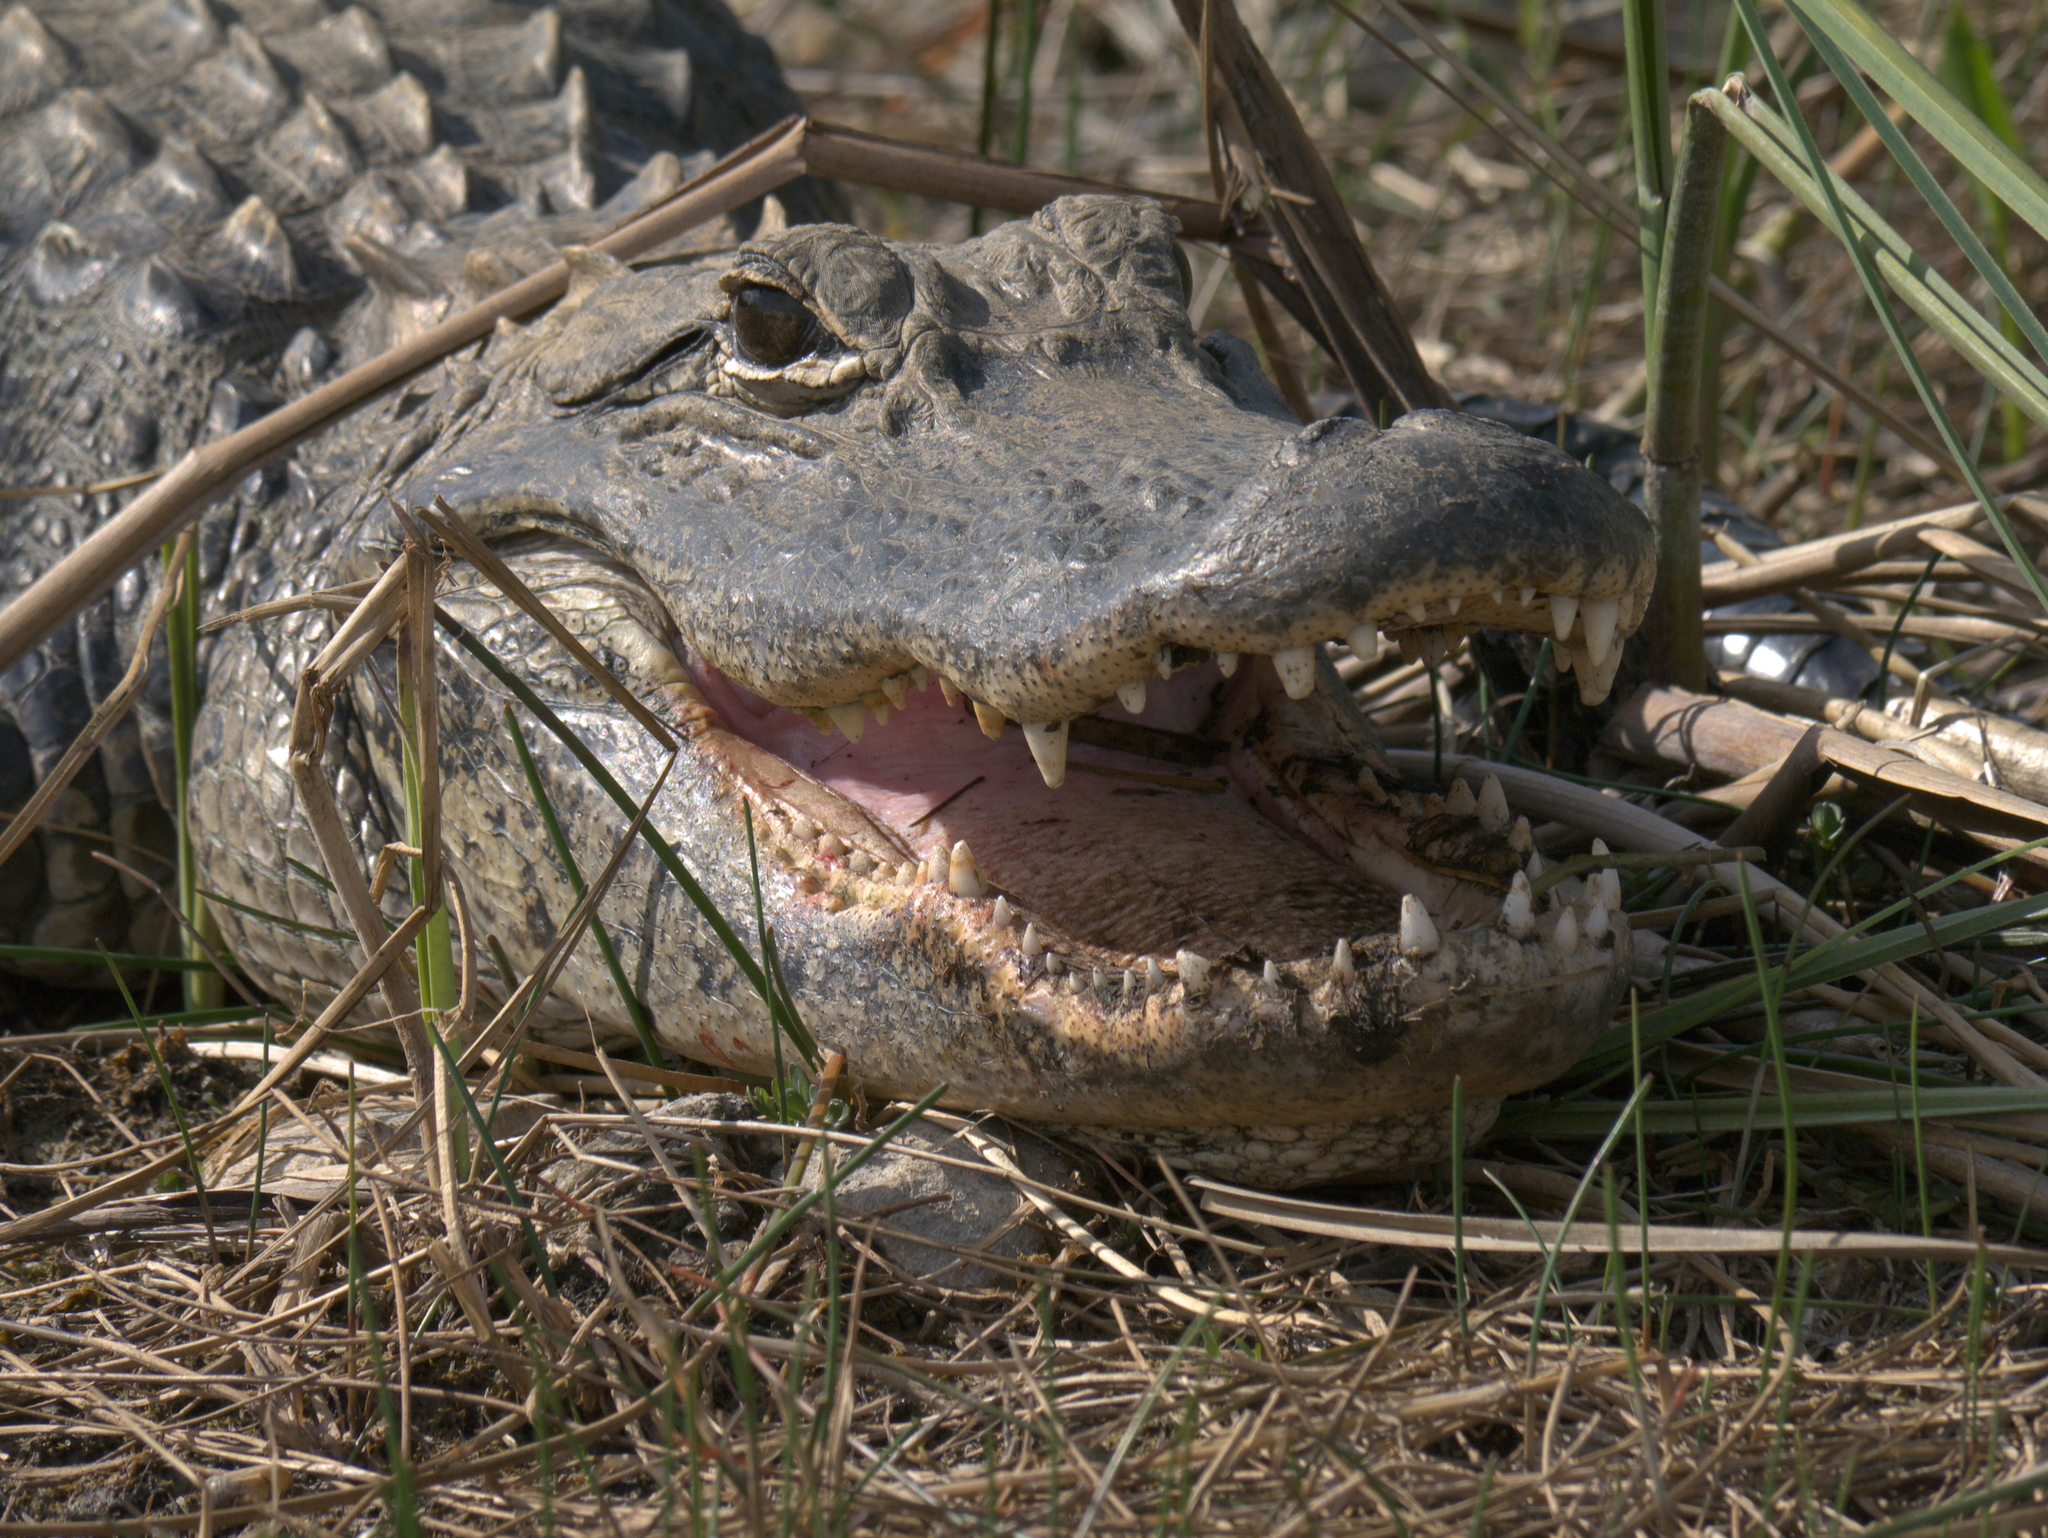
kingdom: Animalia
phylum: Chordata
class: Crocodylia
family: Alligatoridae
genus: Alligator
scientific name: Alligator mississippiensis
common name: American alligator
